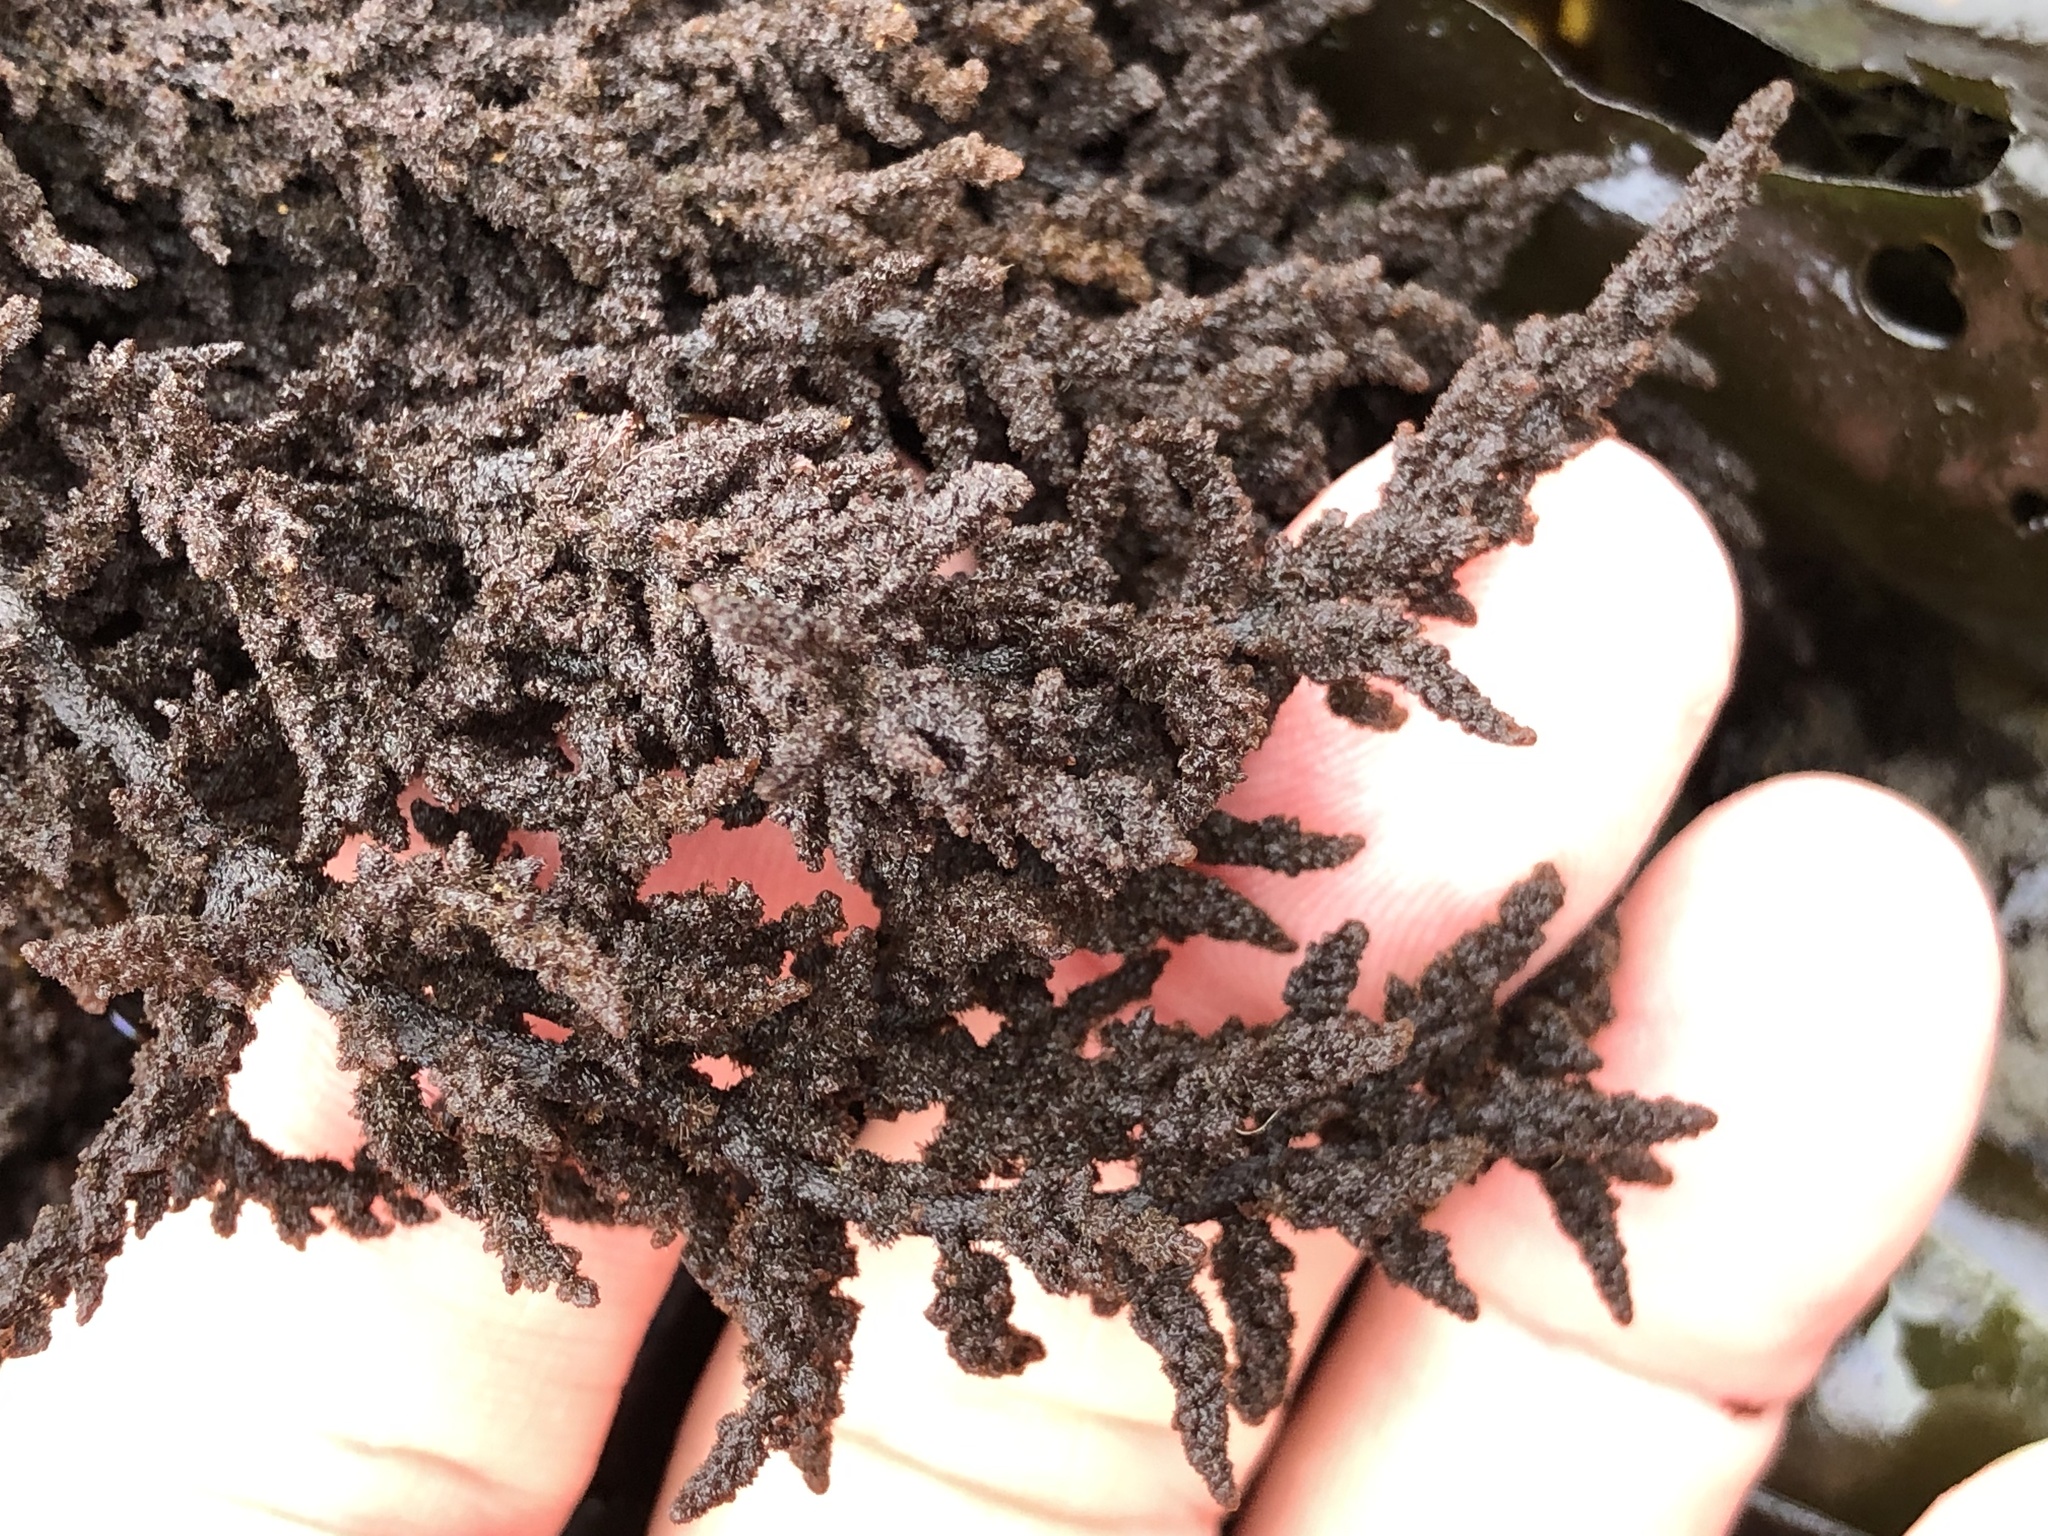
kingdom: Plantae
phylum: Rhodophyta
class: Florideophyceae
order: Ceramiales
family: Callithamniaceae
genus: Callithamnion
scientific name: Callithamnion pikeanum
